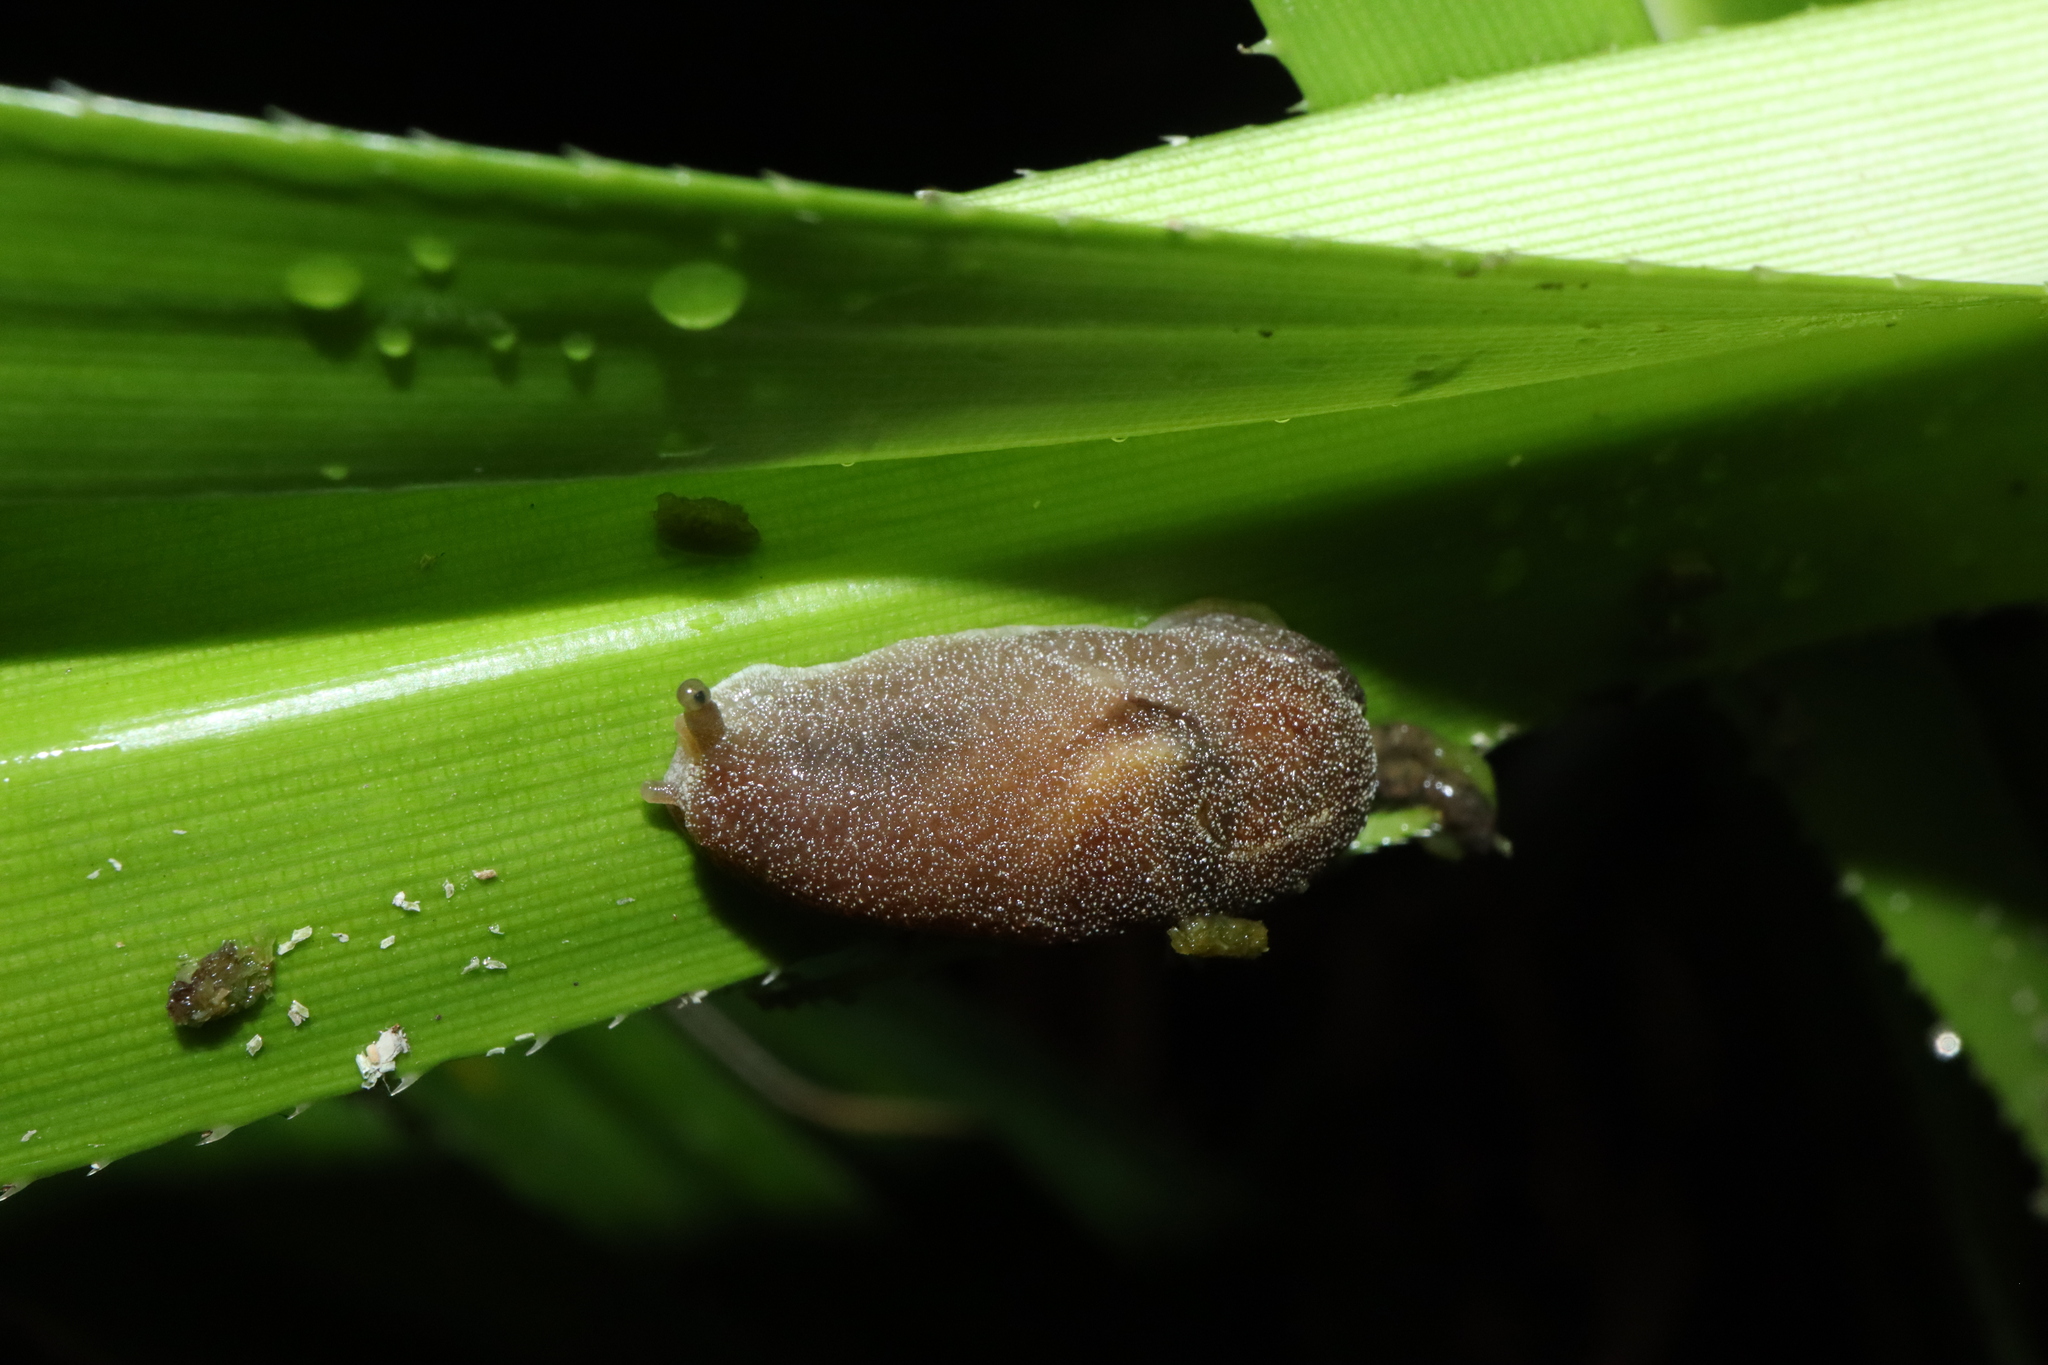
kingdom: Animalia
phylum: Mollusca
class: Gastropoda
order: Stylommatophora
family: Helicarionidae
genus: Parmacochlea
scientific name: Parmacochlea furca
